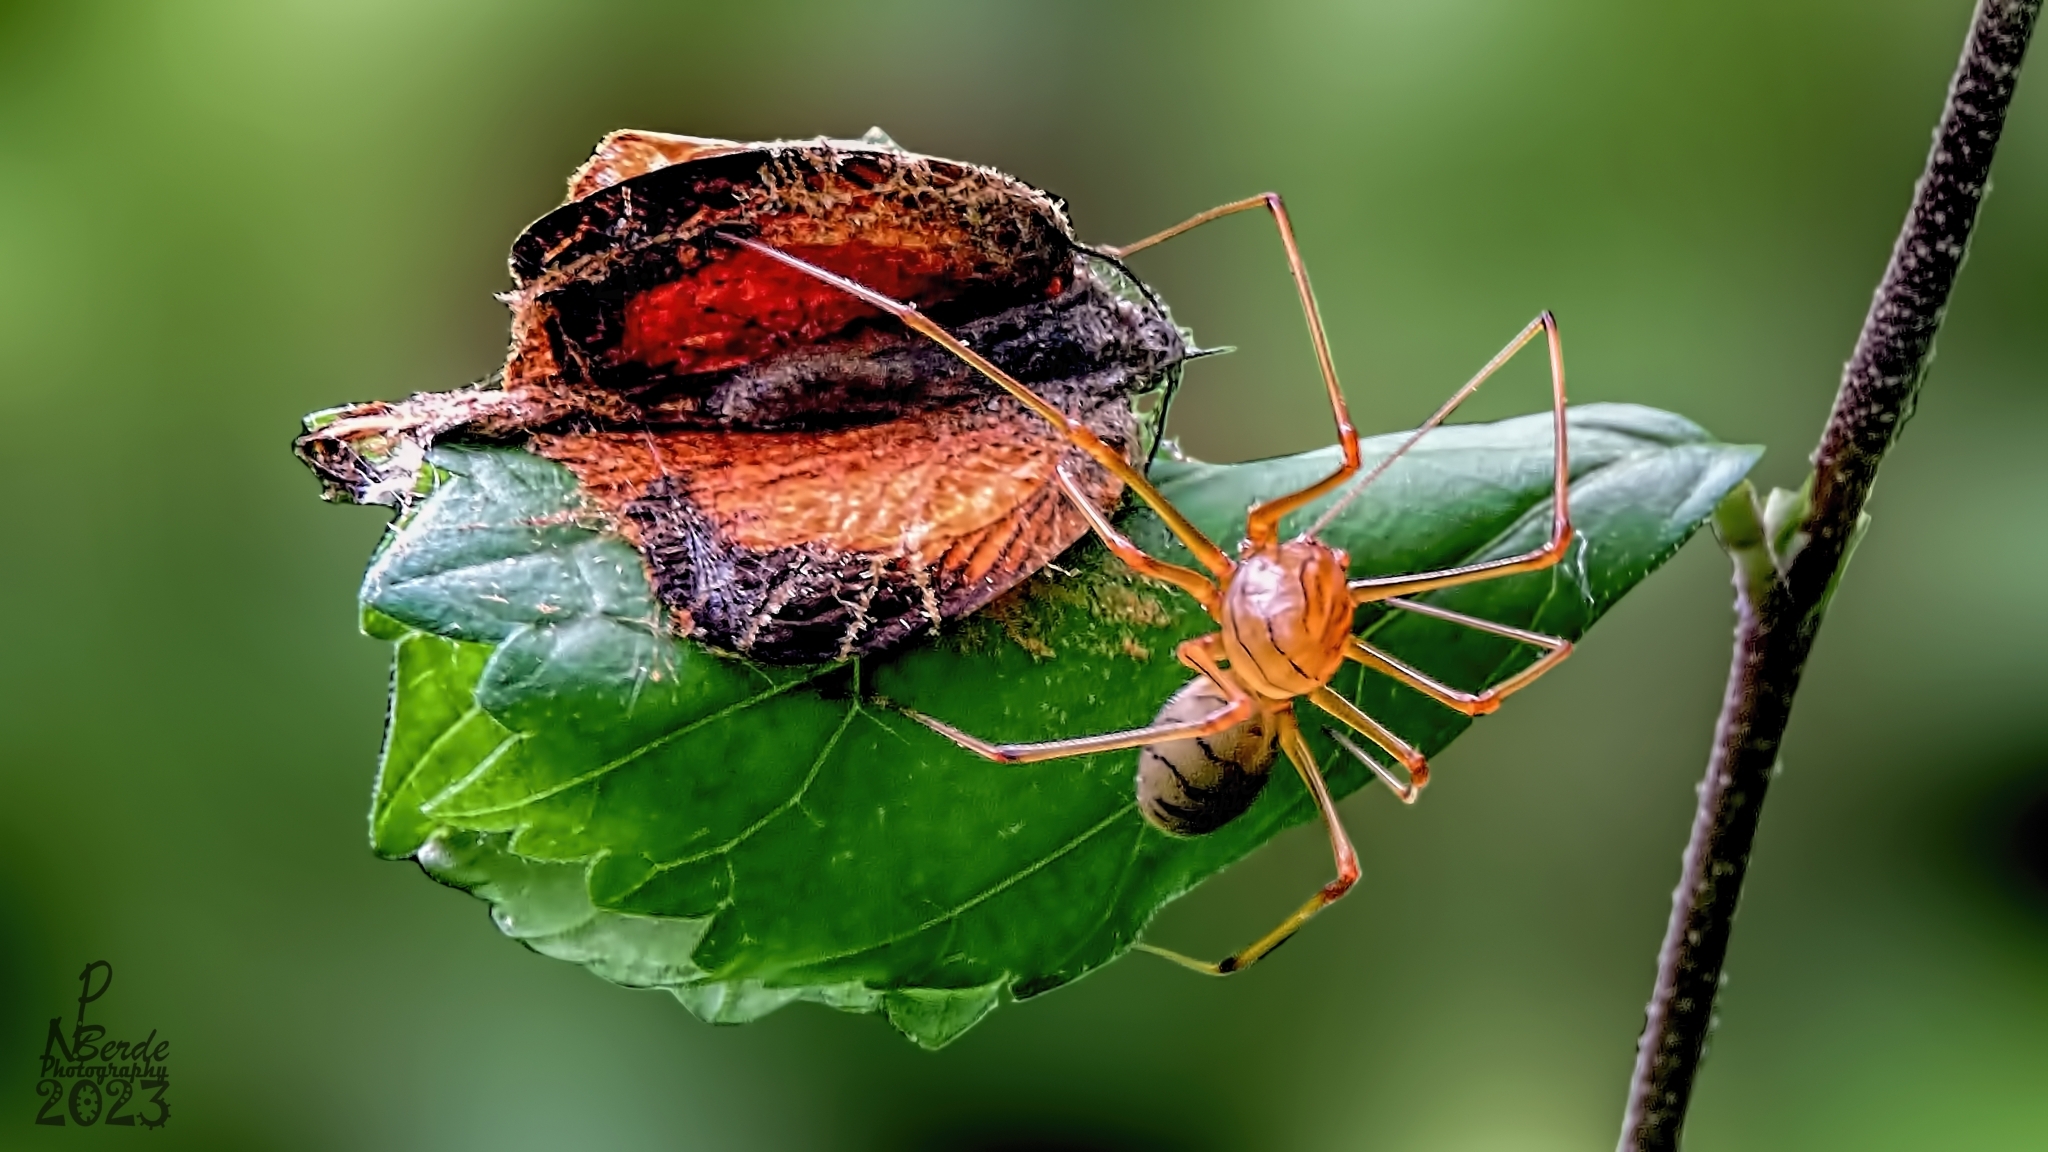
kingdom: Animalia
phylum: Arthropoda
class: Arachnida
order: Araneae
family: Scytodidae
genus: Dictis
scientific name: Dictis striatipes
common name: Spider
